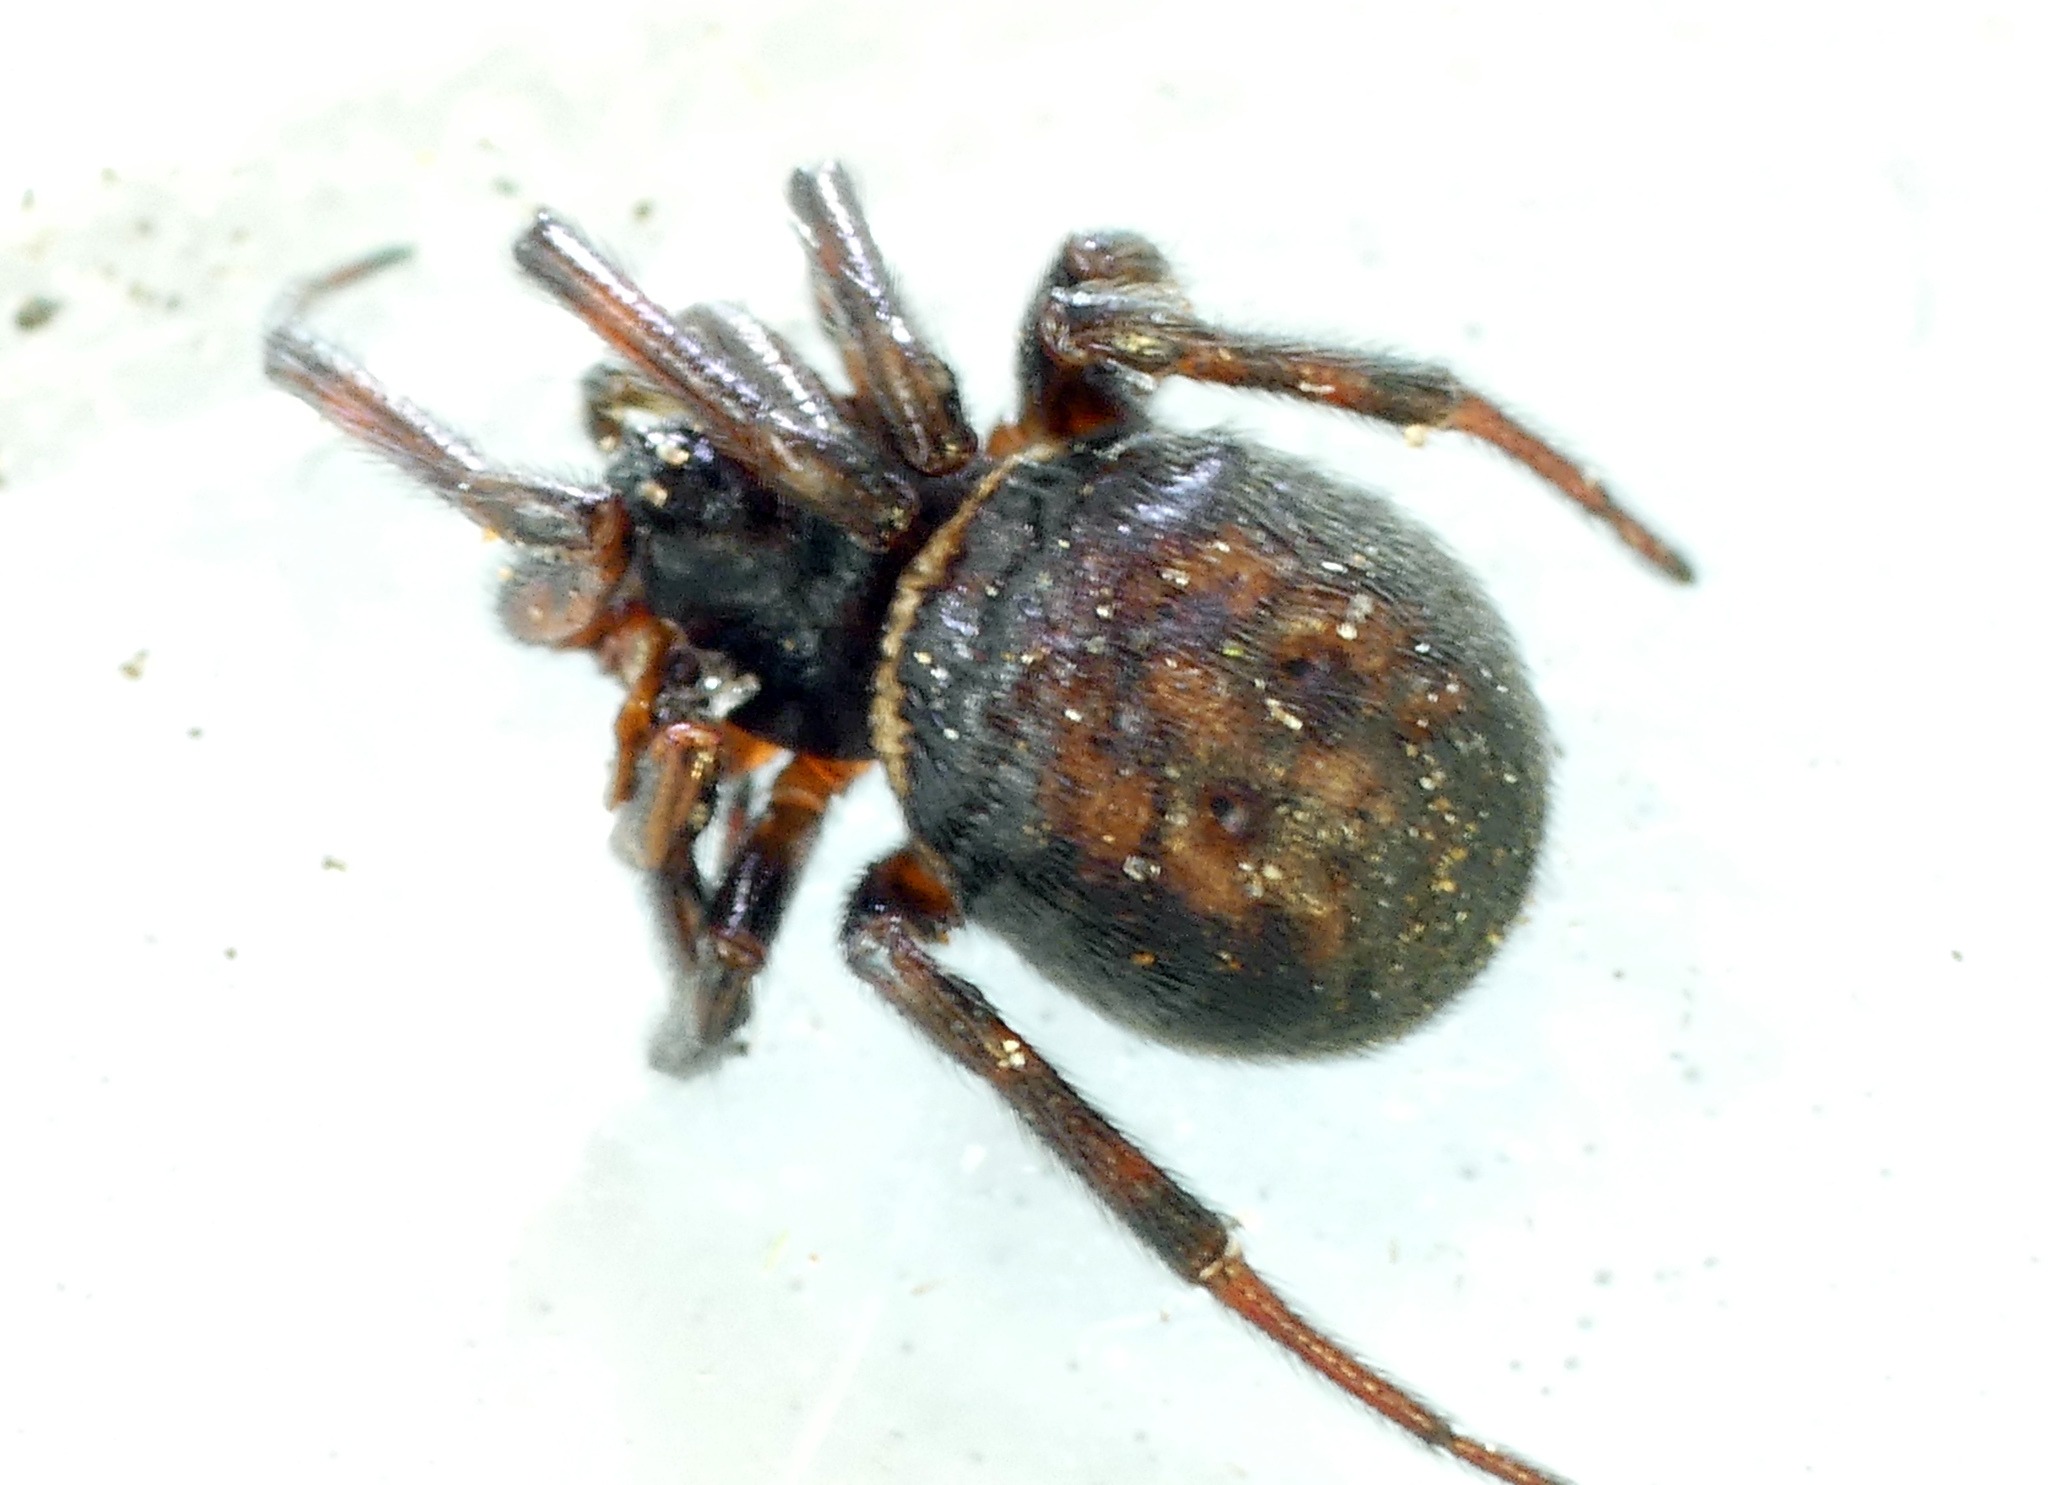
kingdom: Animalia
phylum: Arthropoda
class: Arachnida
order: Araneae
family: Theridiidae
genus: Steatoda
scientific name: Steatoda bipunctata
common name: False widow
